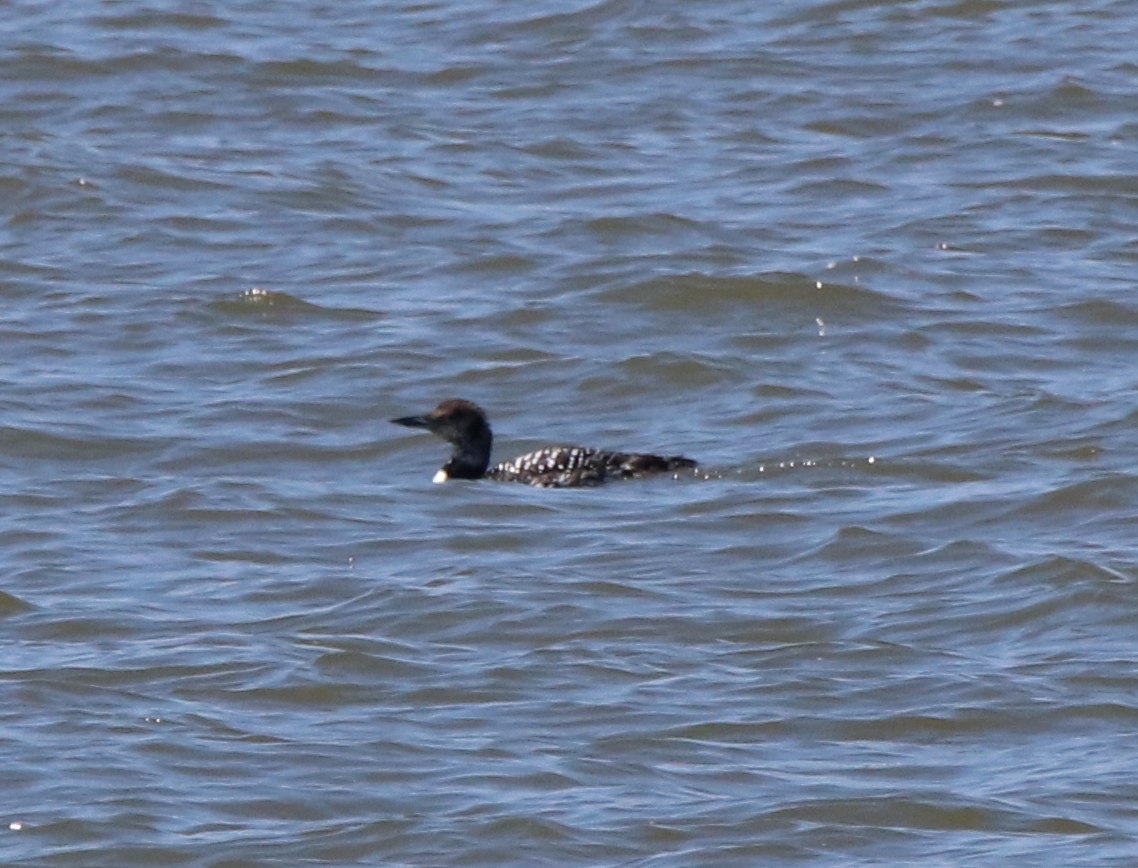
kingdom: Animalia
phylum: Chordata
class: Aves
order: Gaviiformes
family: Gaviidae
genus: Gavia
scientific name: Gavia immer
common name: Common loon
